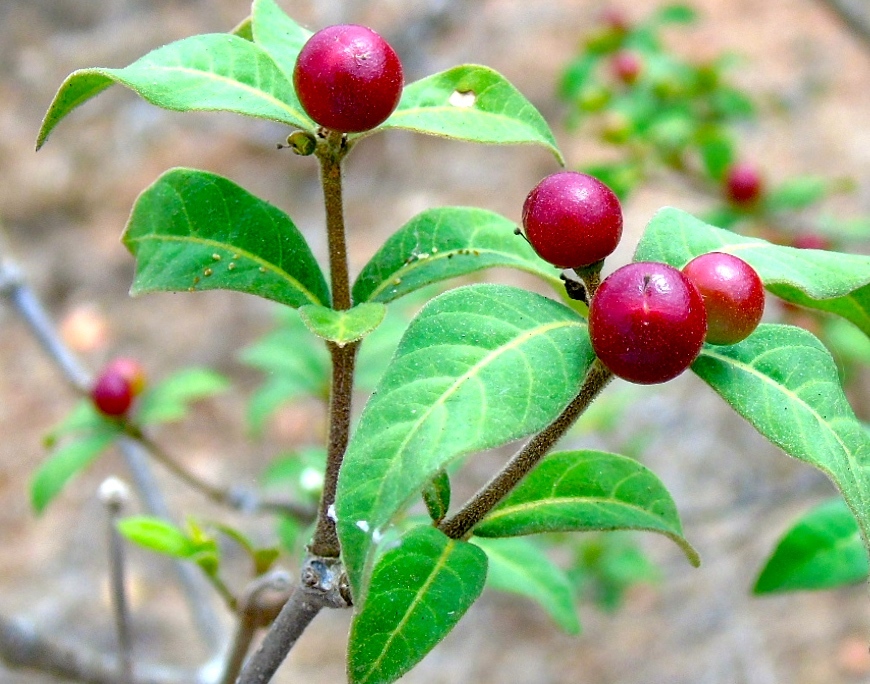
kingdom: Plantae
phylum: Tracheophyta
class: Magnoliopsida
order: Gentianales
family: Apocynaceae
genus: Rauvolfia
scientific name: Rauvolfia tetraphylla
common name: Four-leaf devil-pepper
